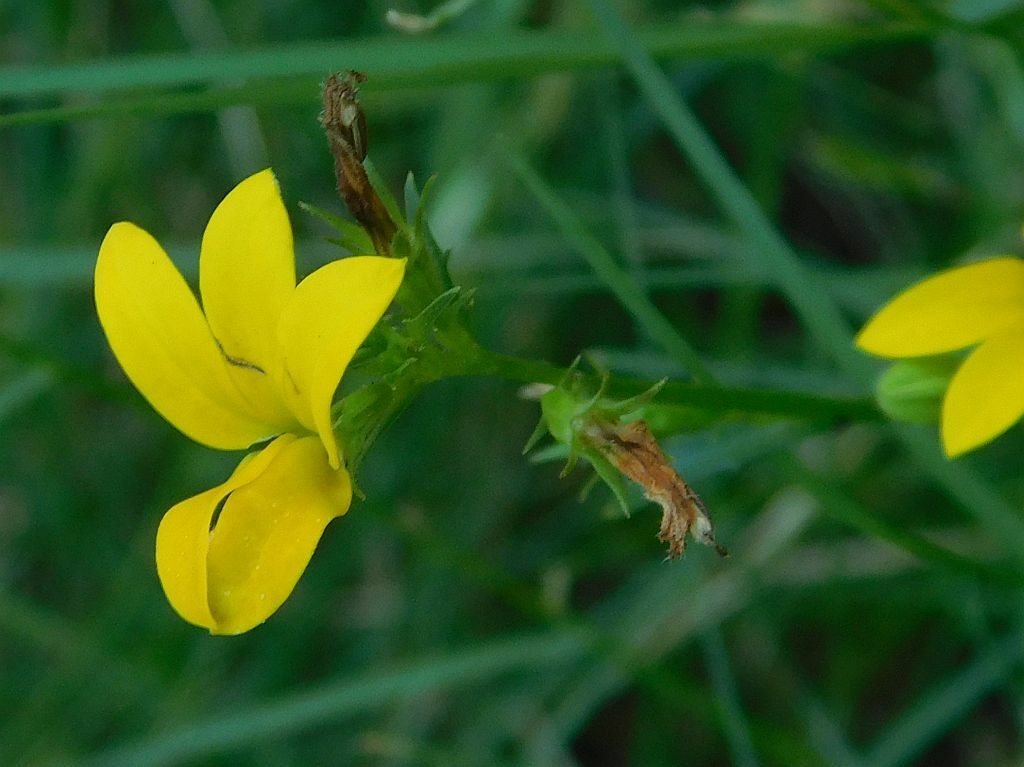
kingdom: Plantae
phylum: Tracheophyta
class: Magnoliopsida
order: Asterales
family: Campanulaceae
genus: Monopsis
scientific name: Monopsis lutea
